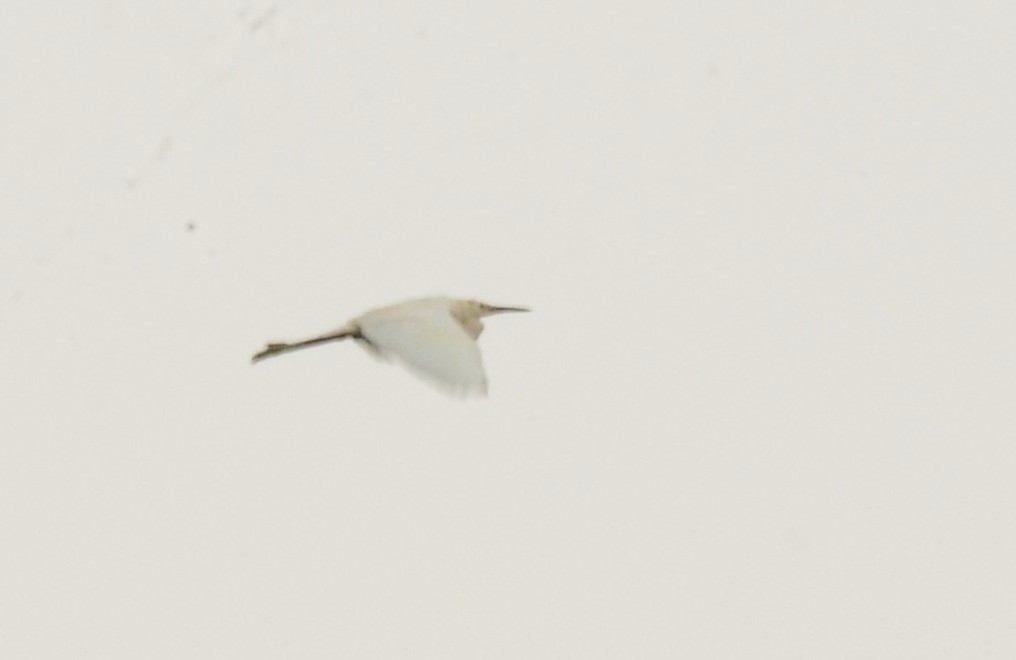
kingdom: Animalia
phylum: Chordata
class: Aves
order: Pelecaniformes
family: Ardeidae
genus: Egretta
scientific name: Egretta garzetta
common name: Little egret
